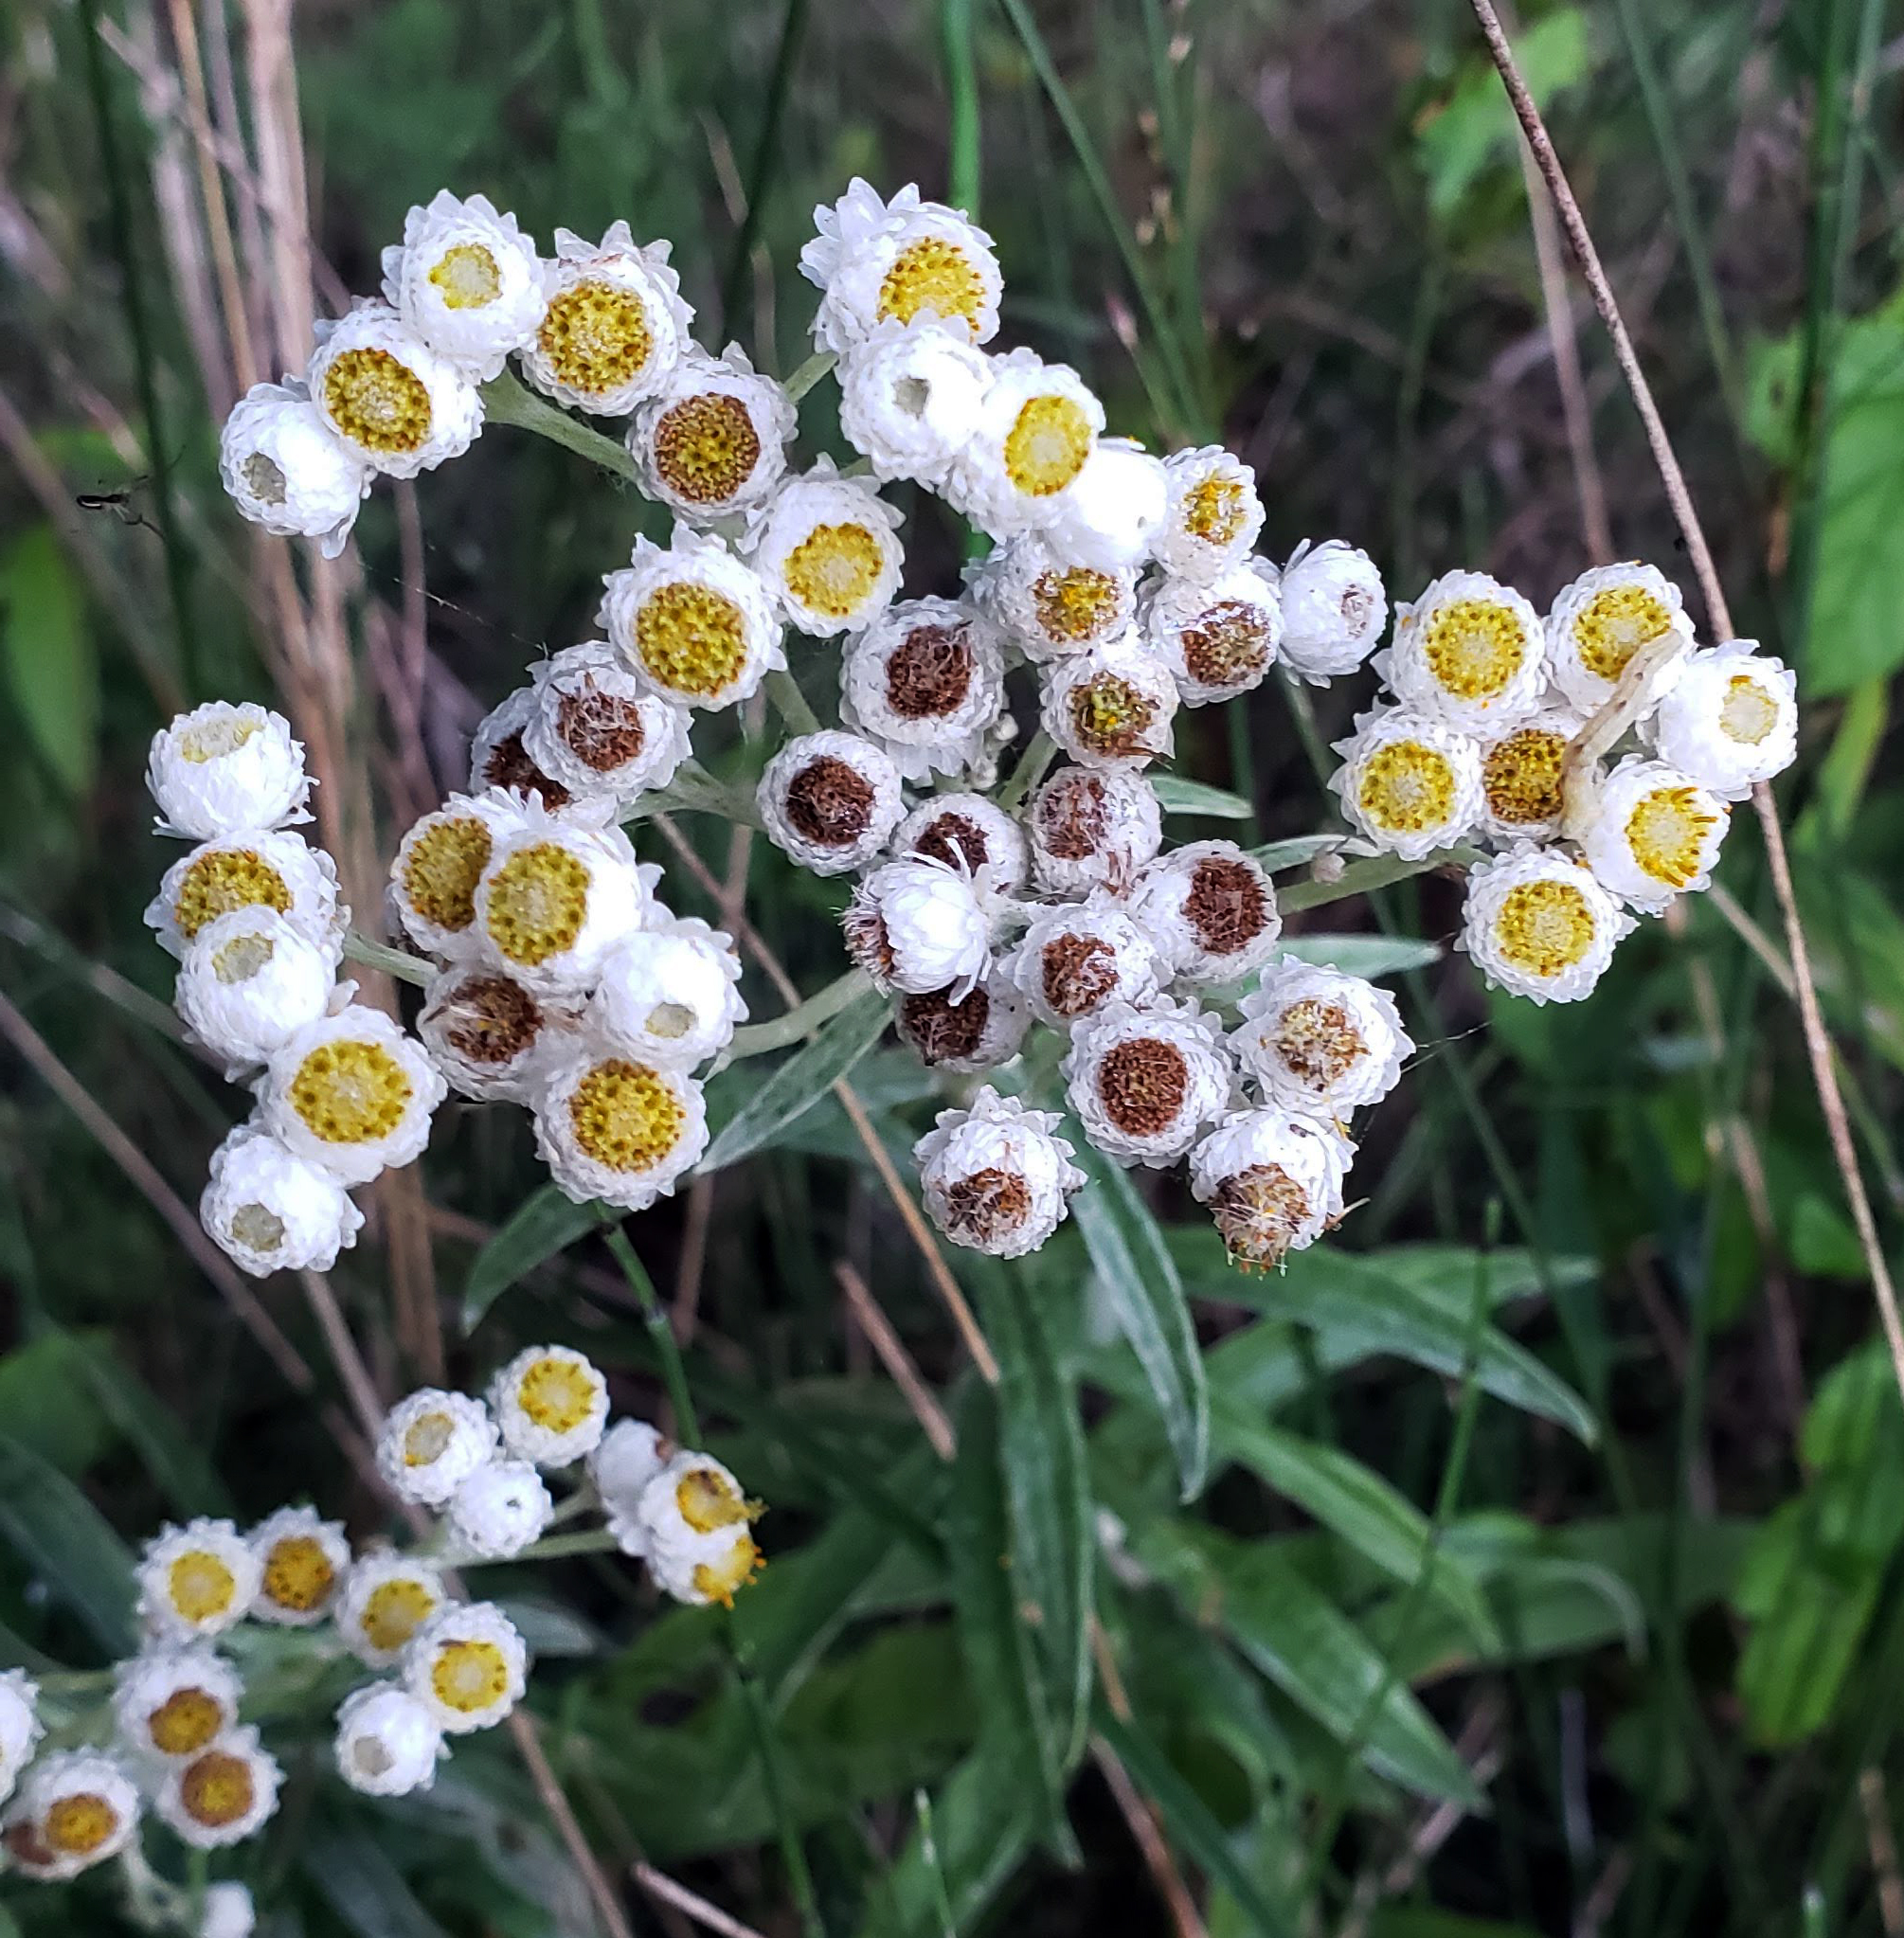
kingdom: Plantae
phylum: Tracheophyta
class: Magnoliopsida
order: Asterales
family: Asteraceae
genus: Anaphalis
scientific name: Anaphalis margaritacea
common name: Pearly everlasting
